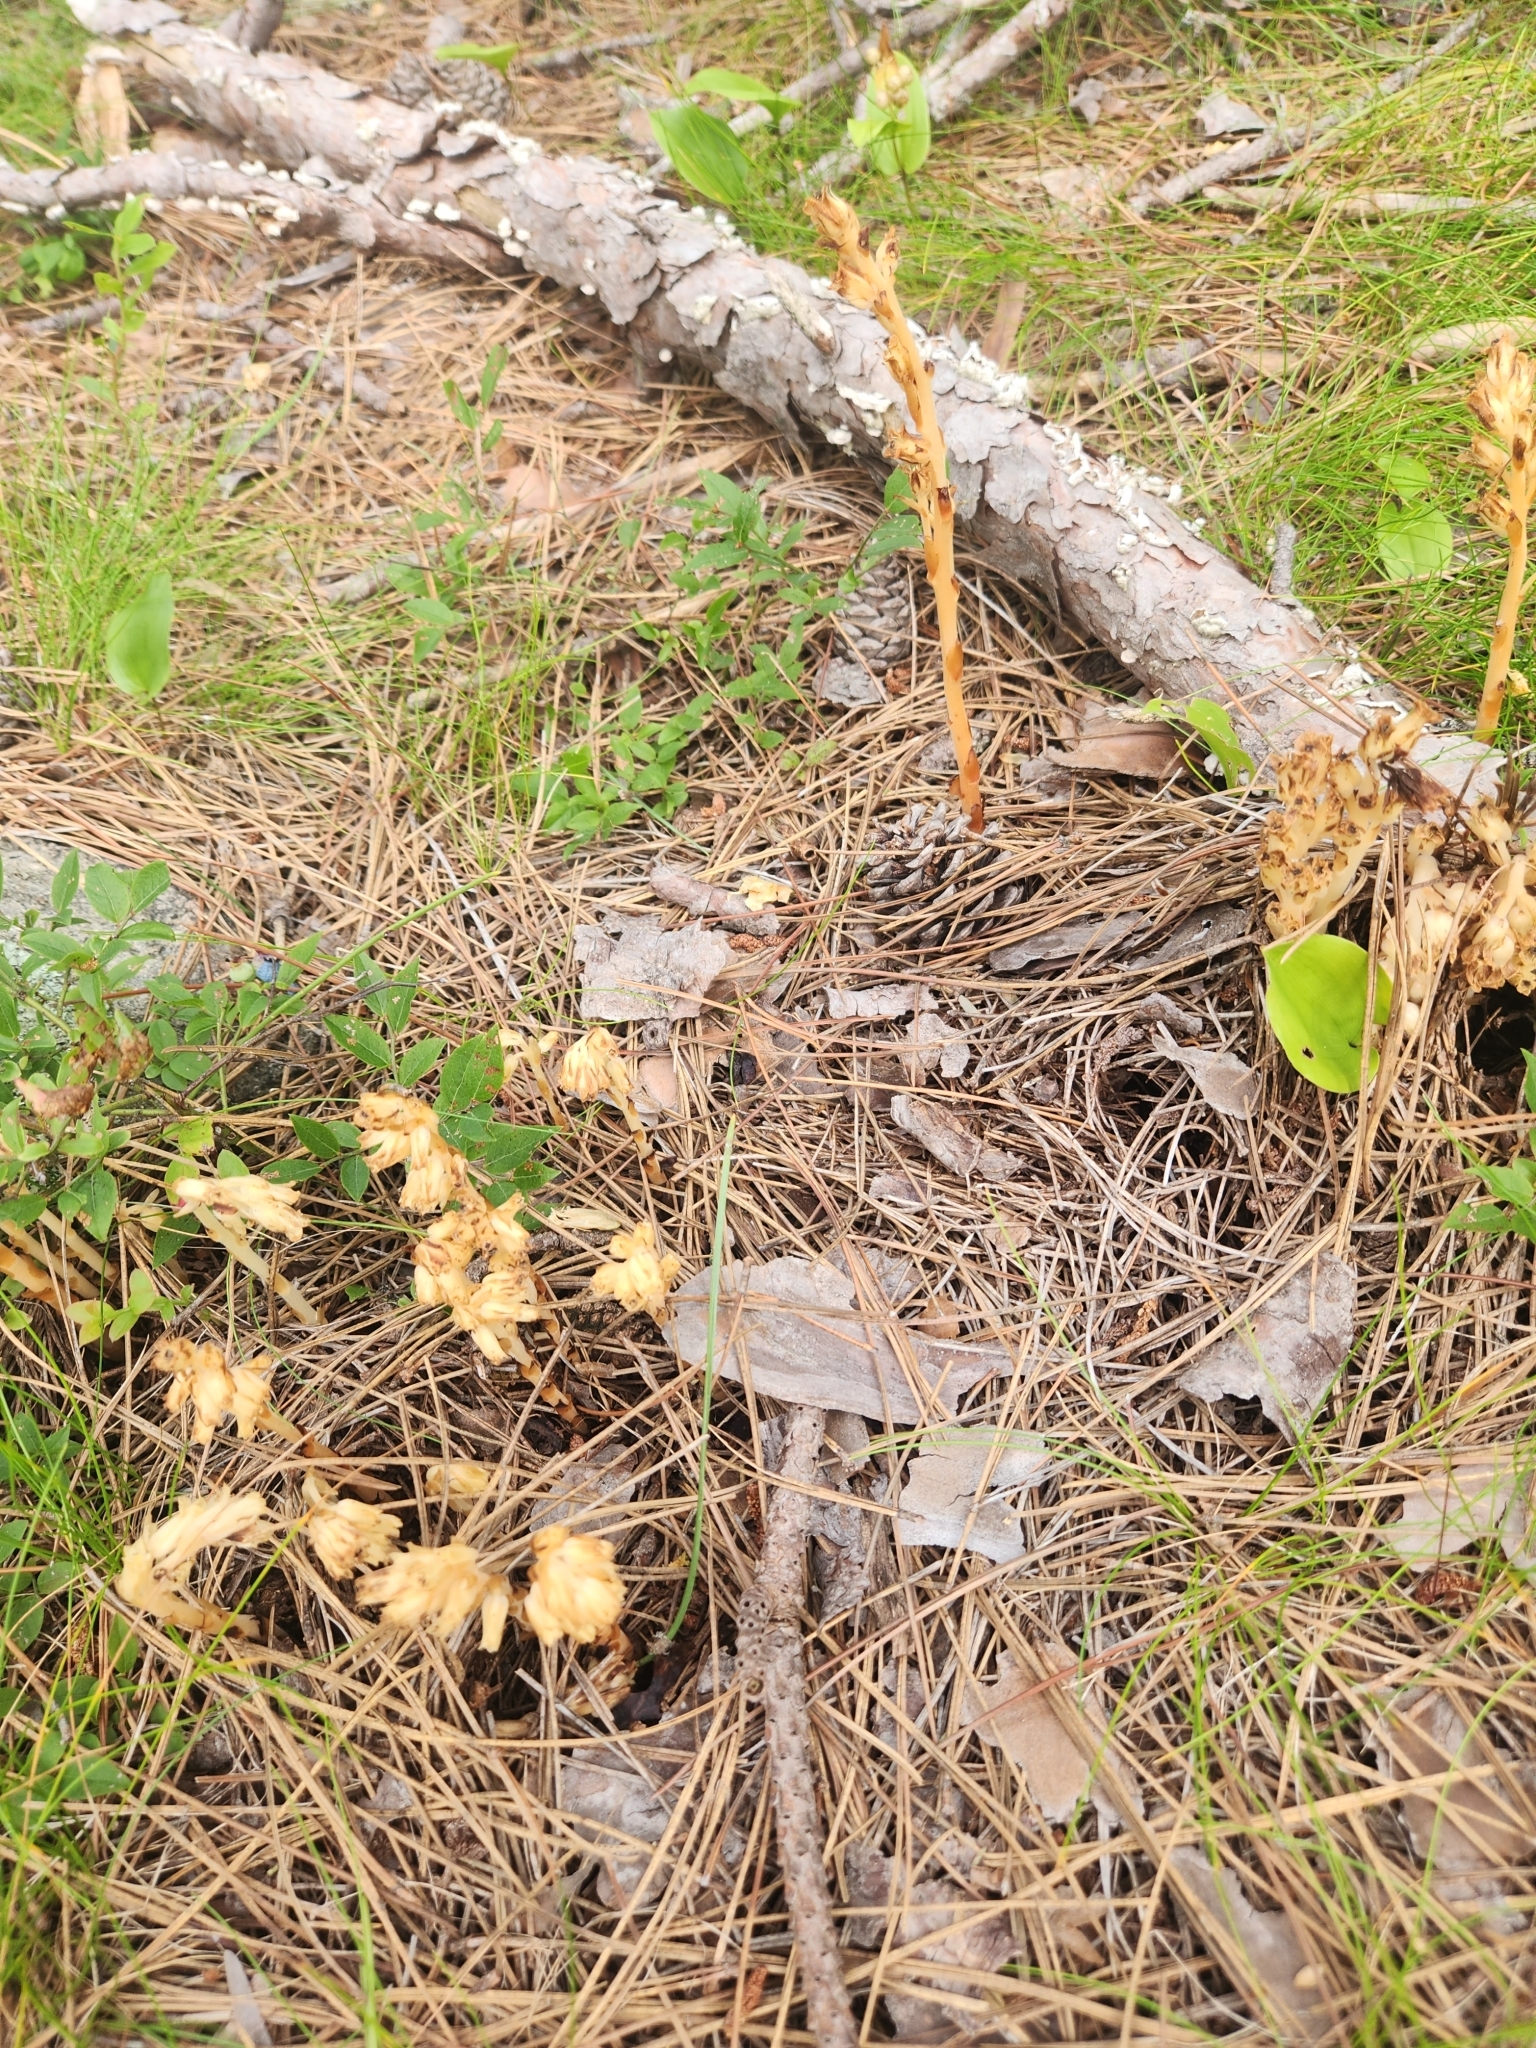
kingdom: Plantae
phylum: Tracheophyta
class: Magnoliopsida
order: Ericales
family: Ericaceae
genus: Hypopitys
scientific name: Hypopitys monotropa
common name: Yellow bird's-nest
